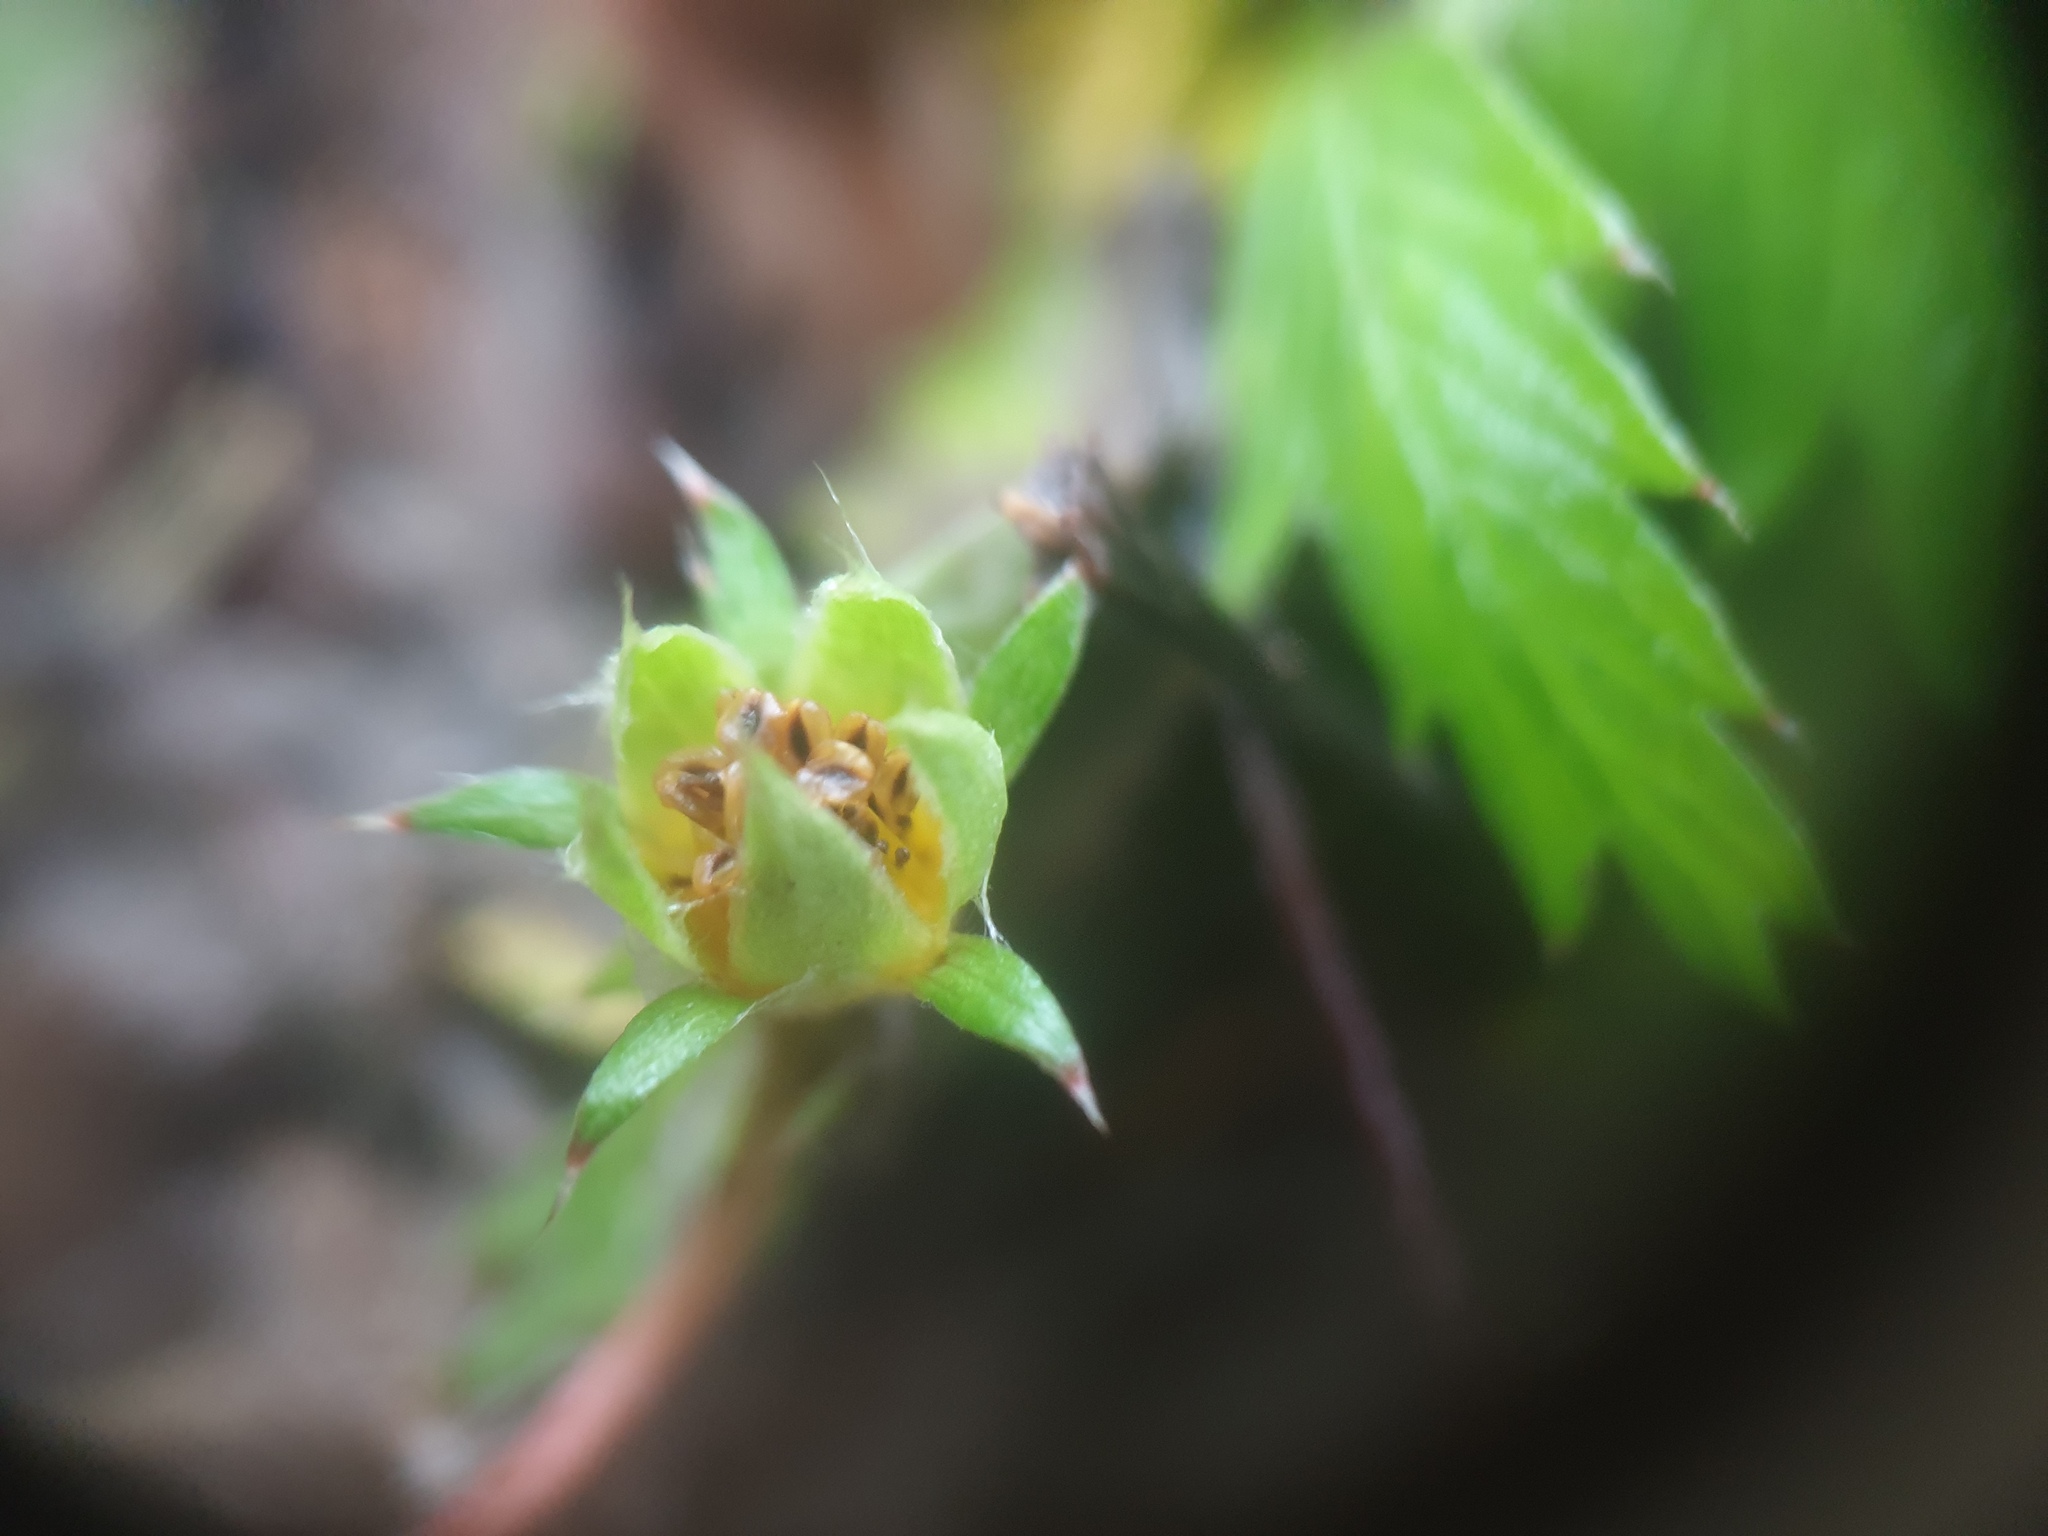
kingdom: Plantae
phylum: Tracheophyta
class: Magnoliopsida
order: Rosales
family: Rosaceae
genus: Argentina
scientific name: Argentina anserina
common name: Common silverweed
